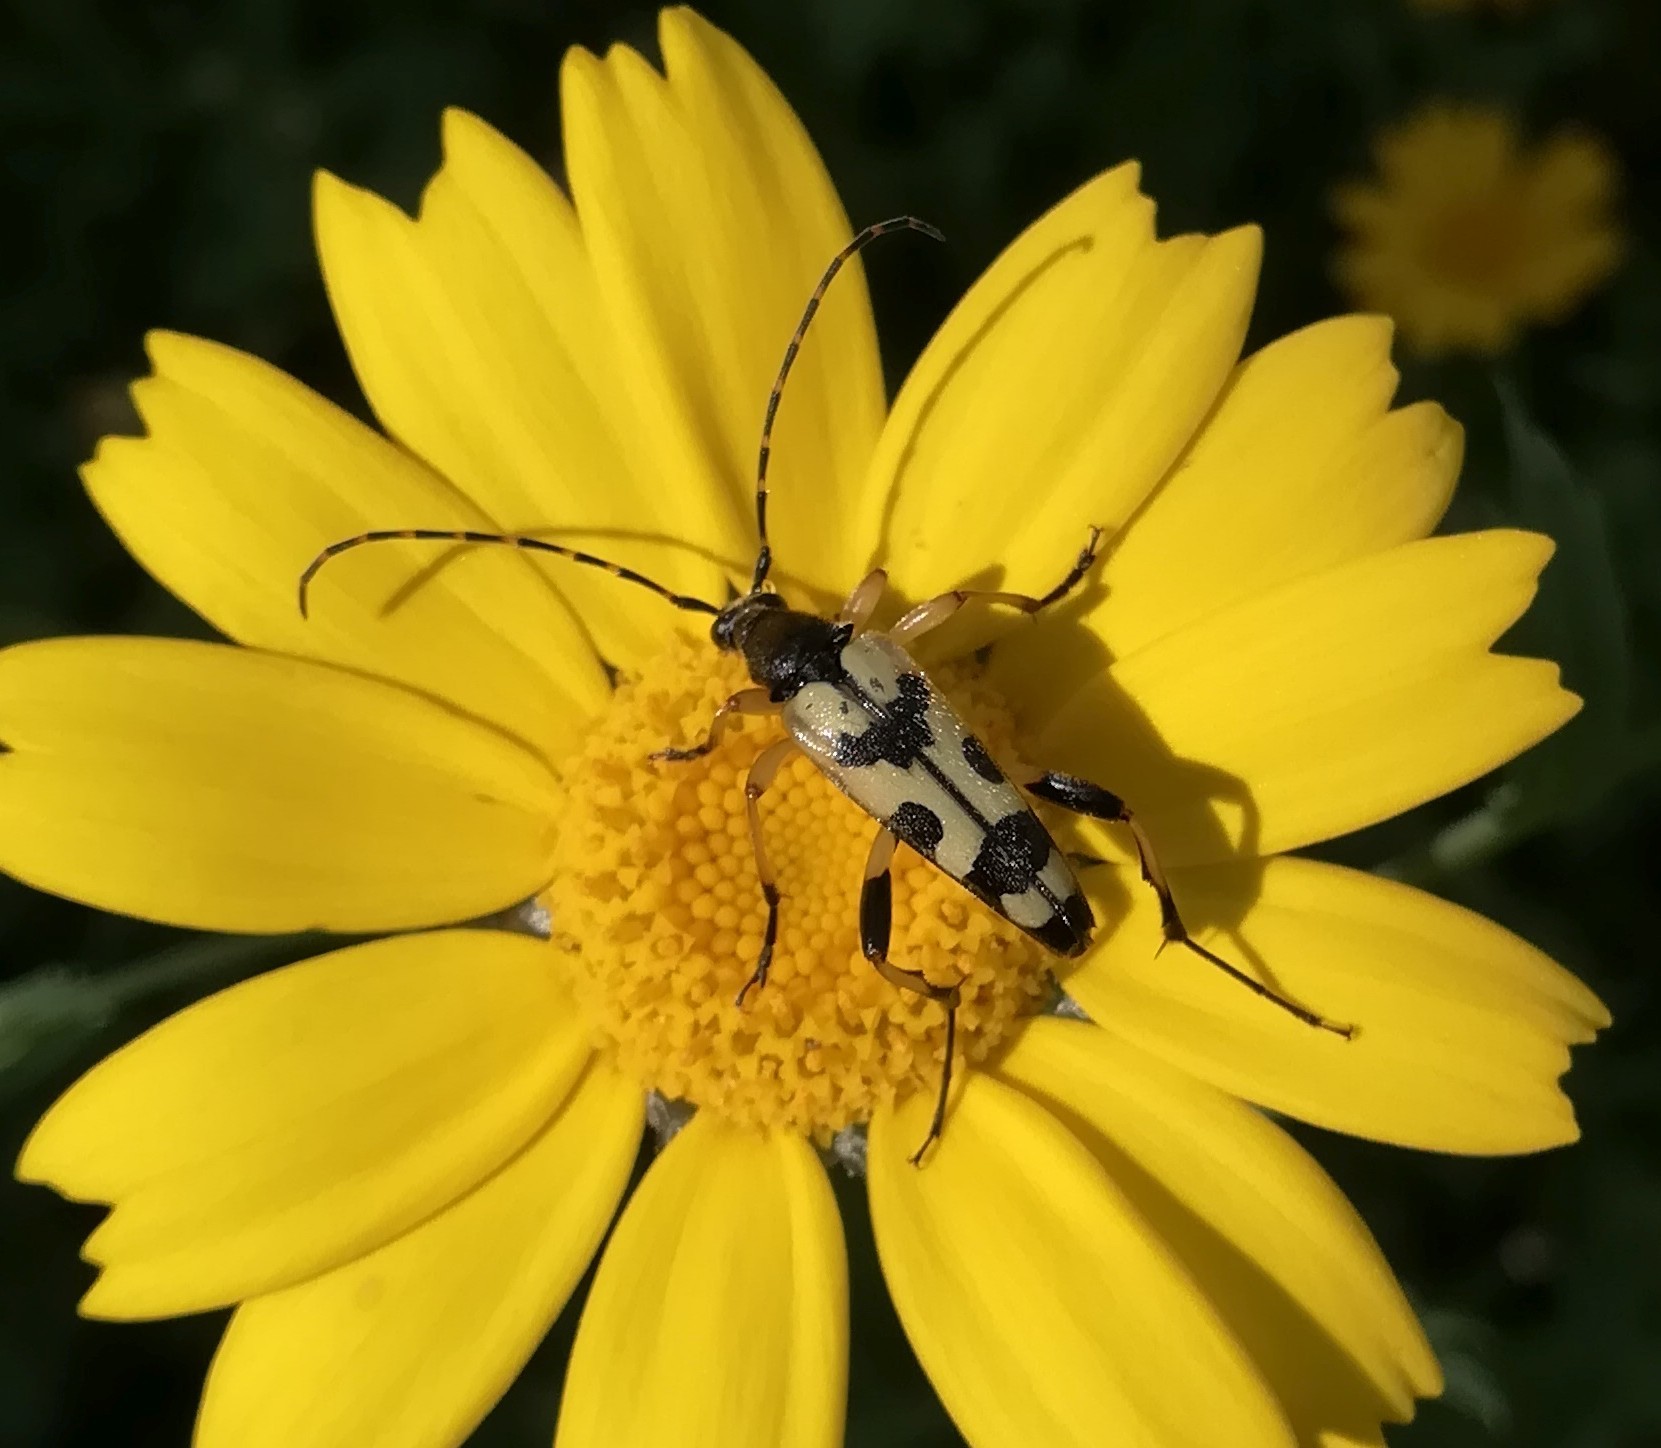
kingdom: Animalia
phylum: Arthropoda
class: Insecta
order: Coleoptera
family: Cerambycidae
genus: Rutpela
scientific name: Rutpela maculata
